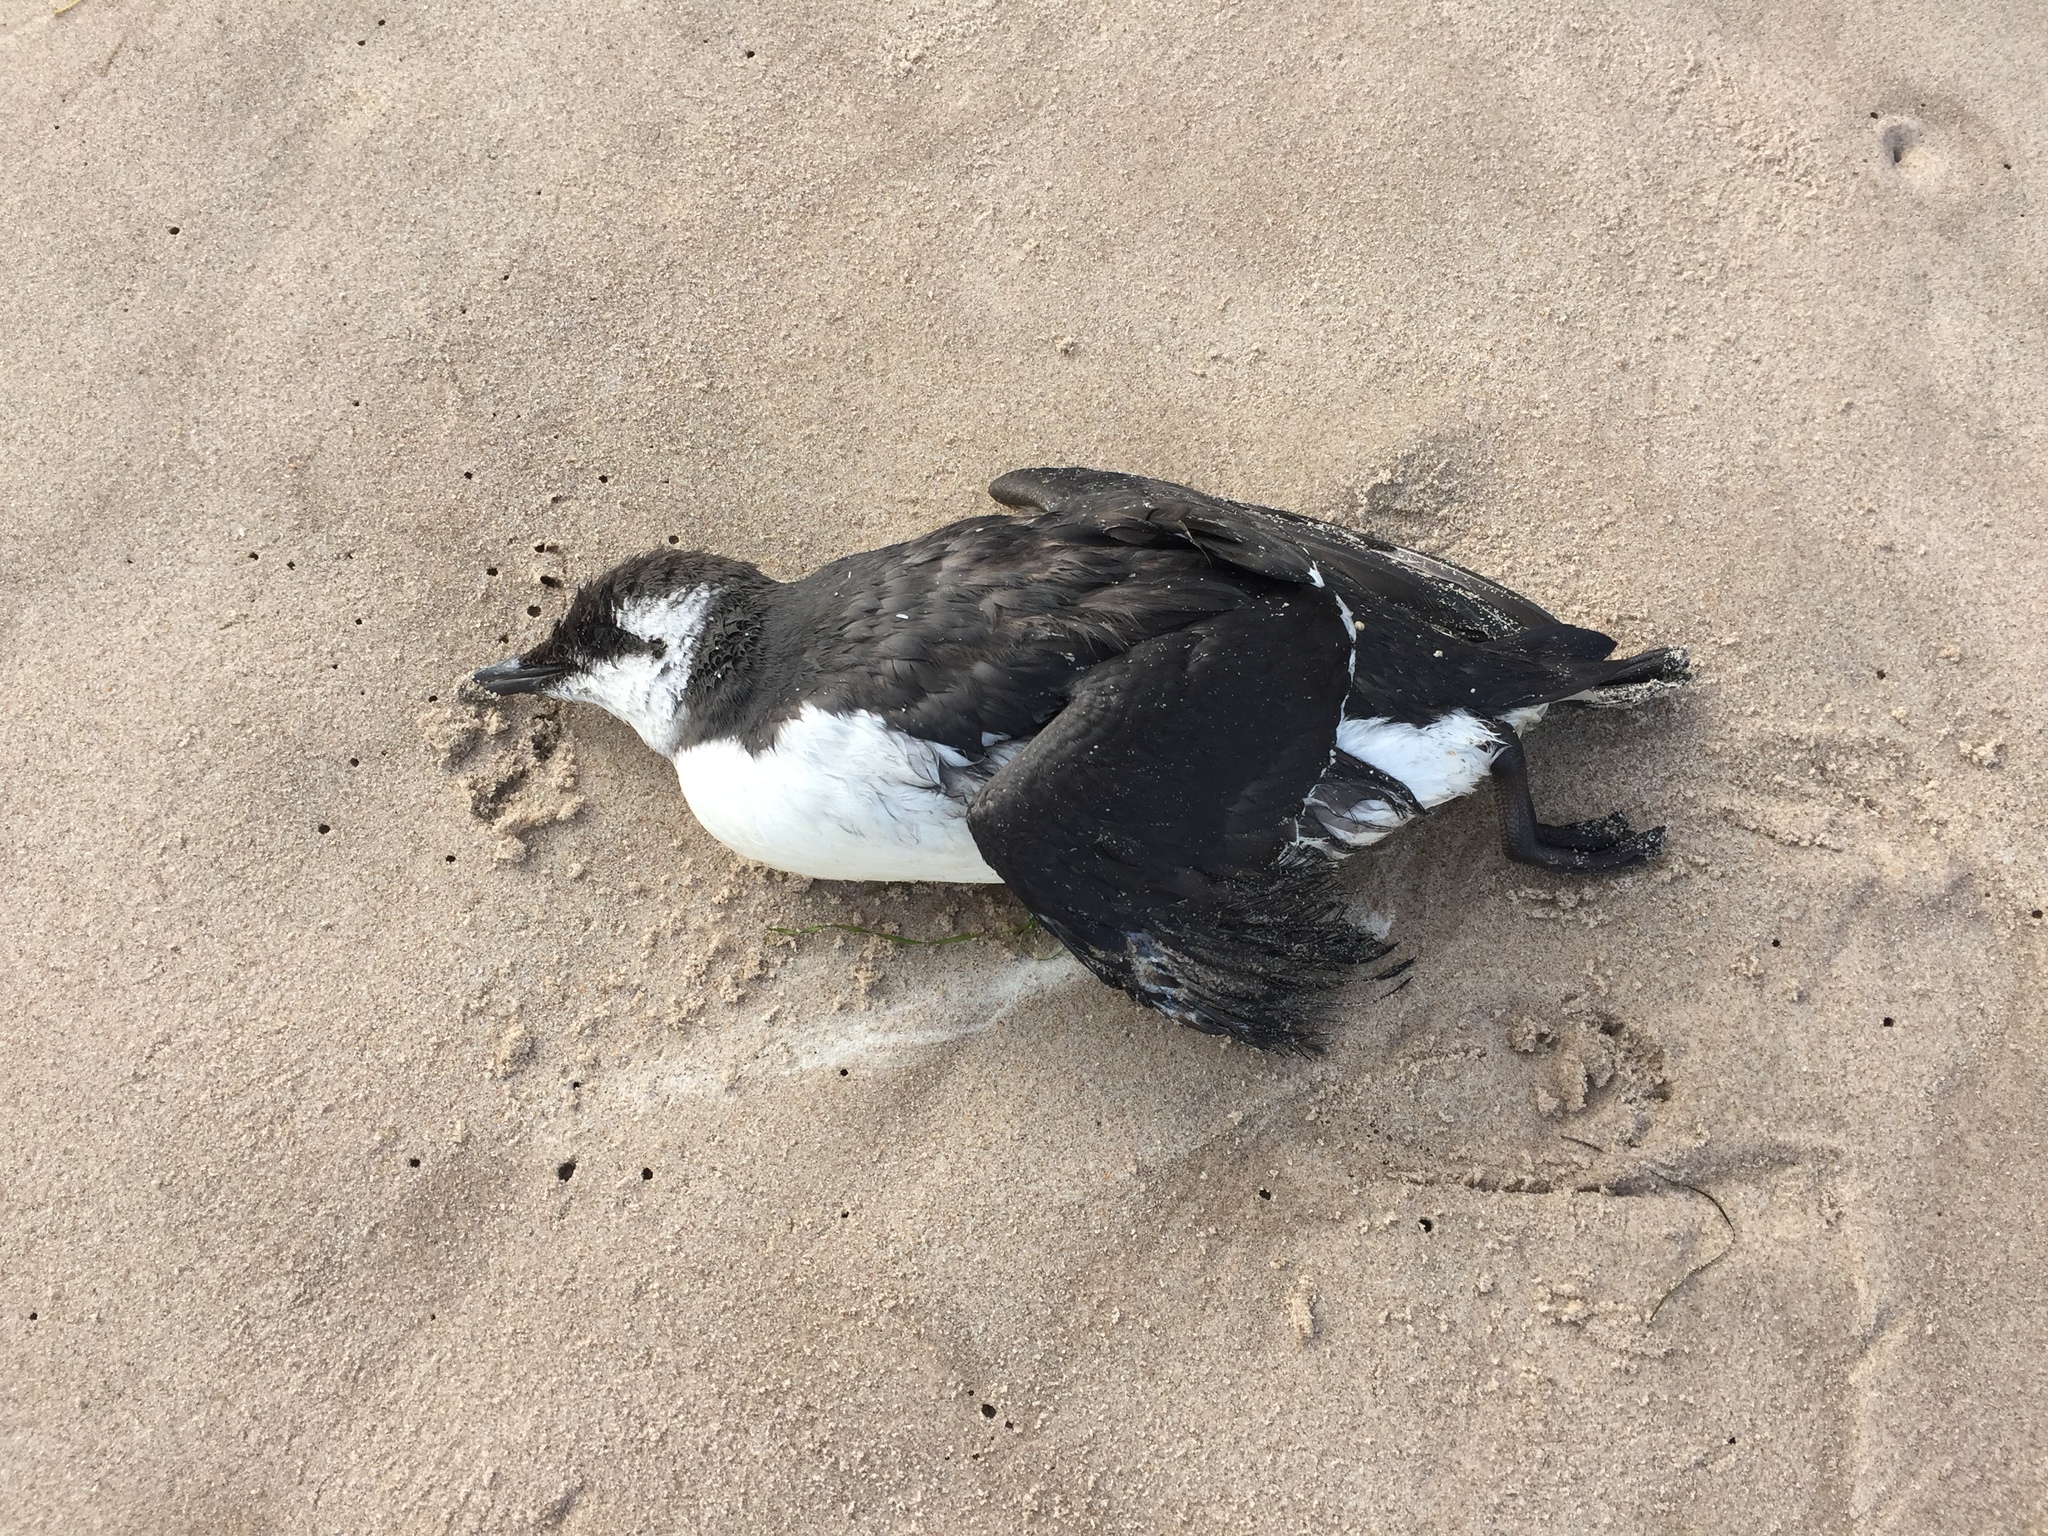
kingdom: Animalia
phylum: Chordata
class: Aves
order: Charadriiformes
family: Alcidae
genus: Uria
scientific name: Uria aalge
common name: Common murre
